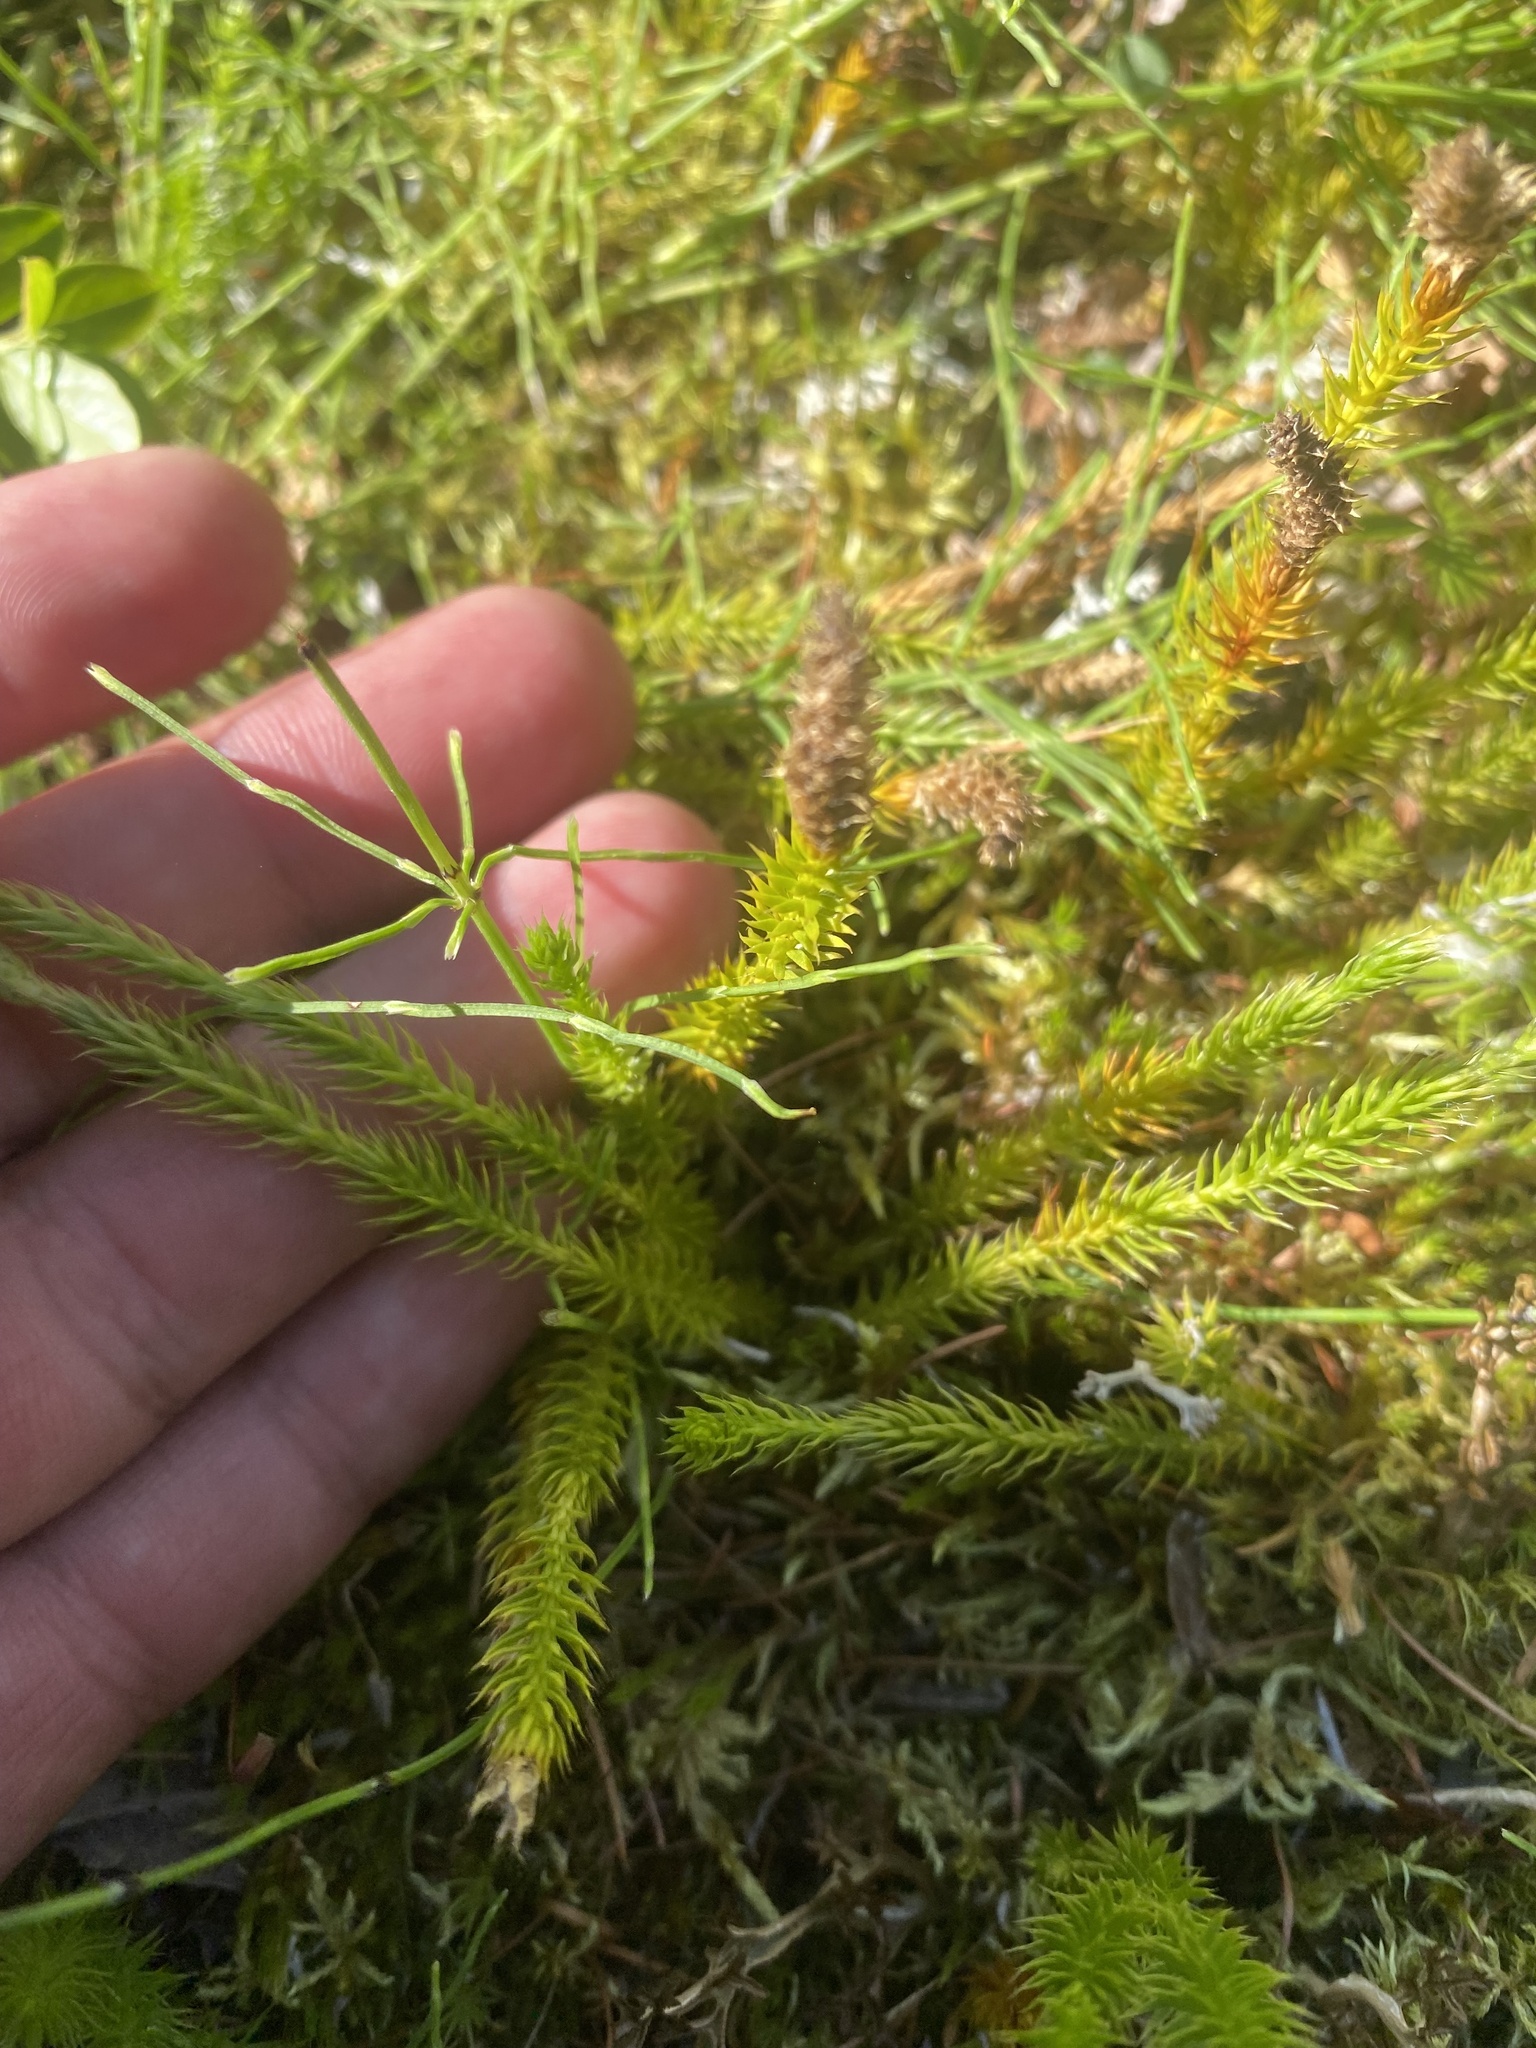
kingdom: Plantae
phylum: Tracheophyta
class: Lycopodiopsida
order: Lycopodiales
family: Lycopodiaceae
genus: Spinulum
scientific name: Spinulum annotinum
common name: Interrupted club-moss
